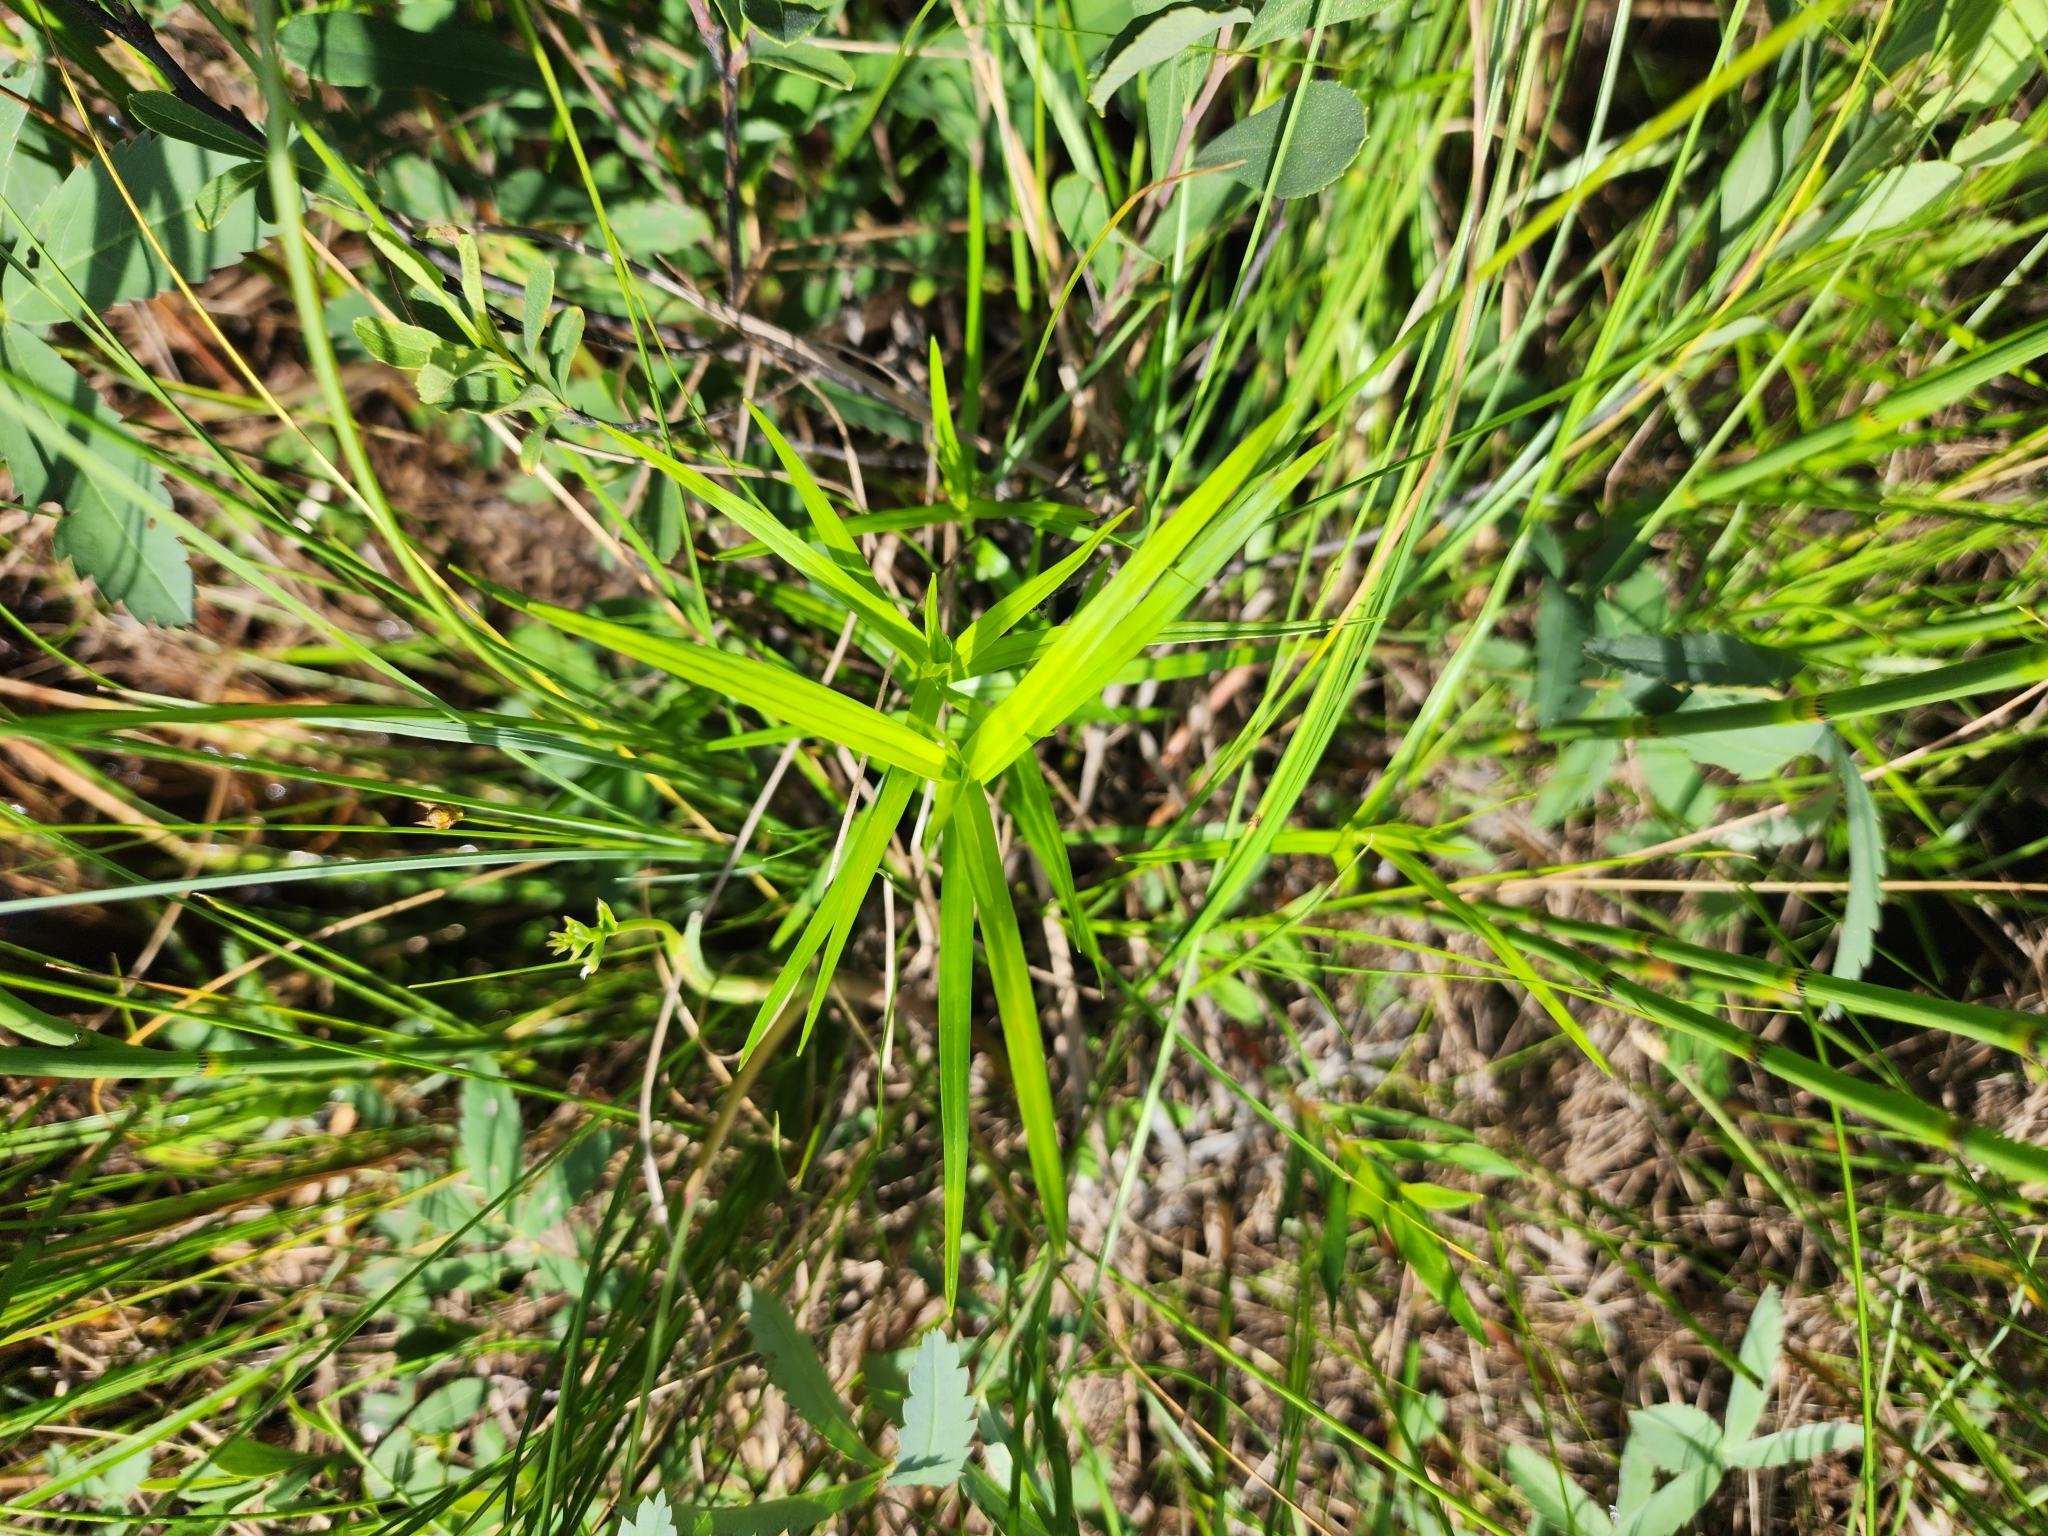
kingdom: Plantae
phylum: Tracheophyta
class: Liliopsida
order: Poales
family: Cyperaceae
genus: Dulichium
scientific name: Dulichium arundinaceum
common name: Three-way sedge
